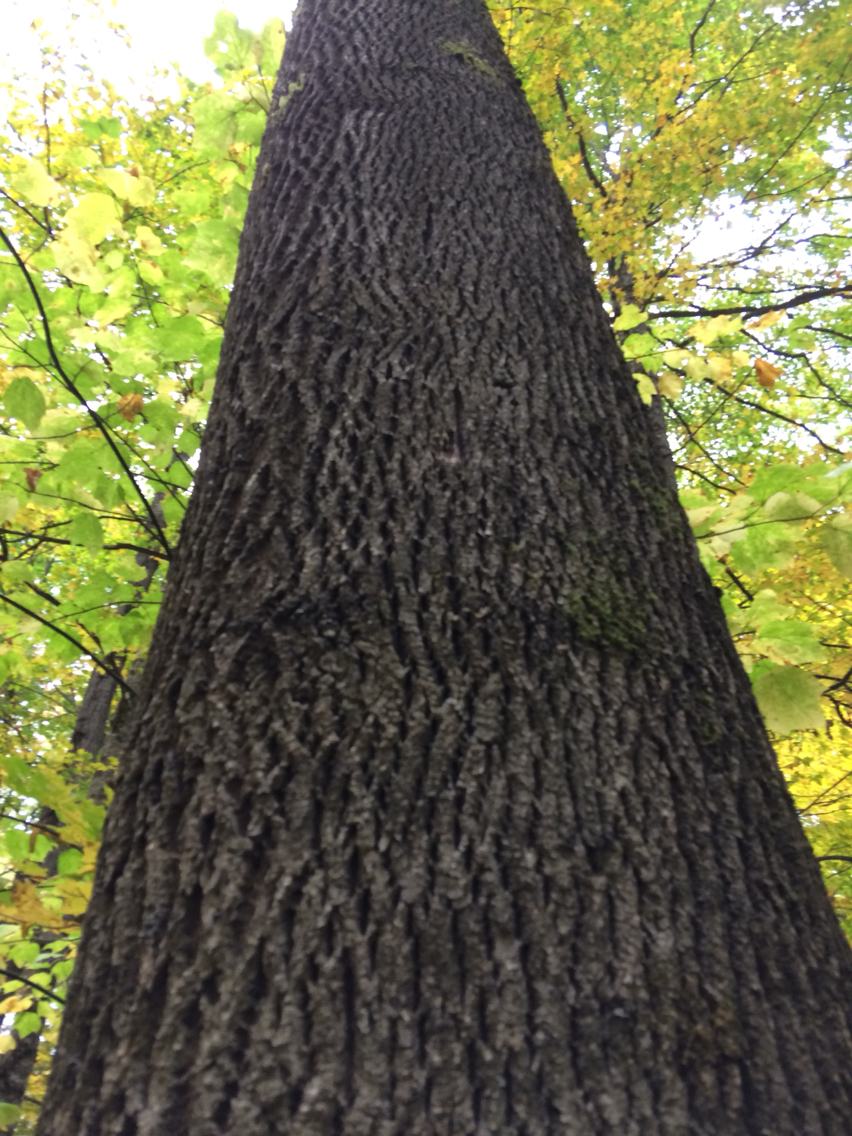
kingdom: Plantae
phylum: Tracheophyta
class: Magnoliopsida
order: Lamiales
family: Oleaceae
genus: Fraxinus
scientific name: Fraxinus americana
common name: White ash
